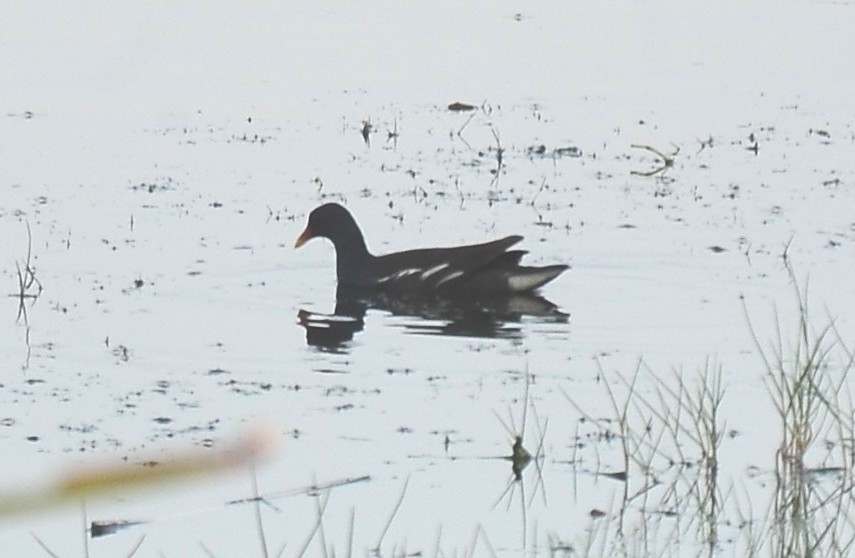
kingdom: Animalia
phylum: Chordata
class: Aves
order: Gruiformes
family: Rallidae
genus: Gallinula
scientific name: Gallinula chloropus
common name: Common moorhen
